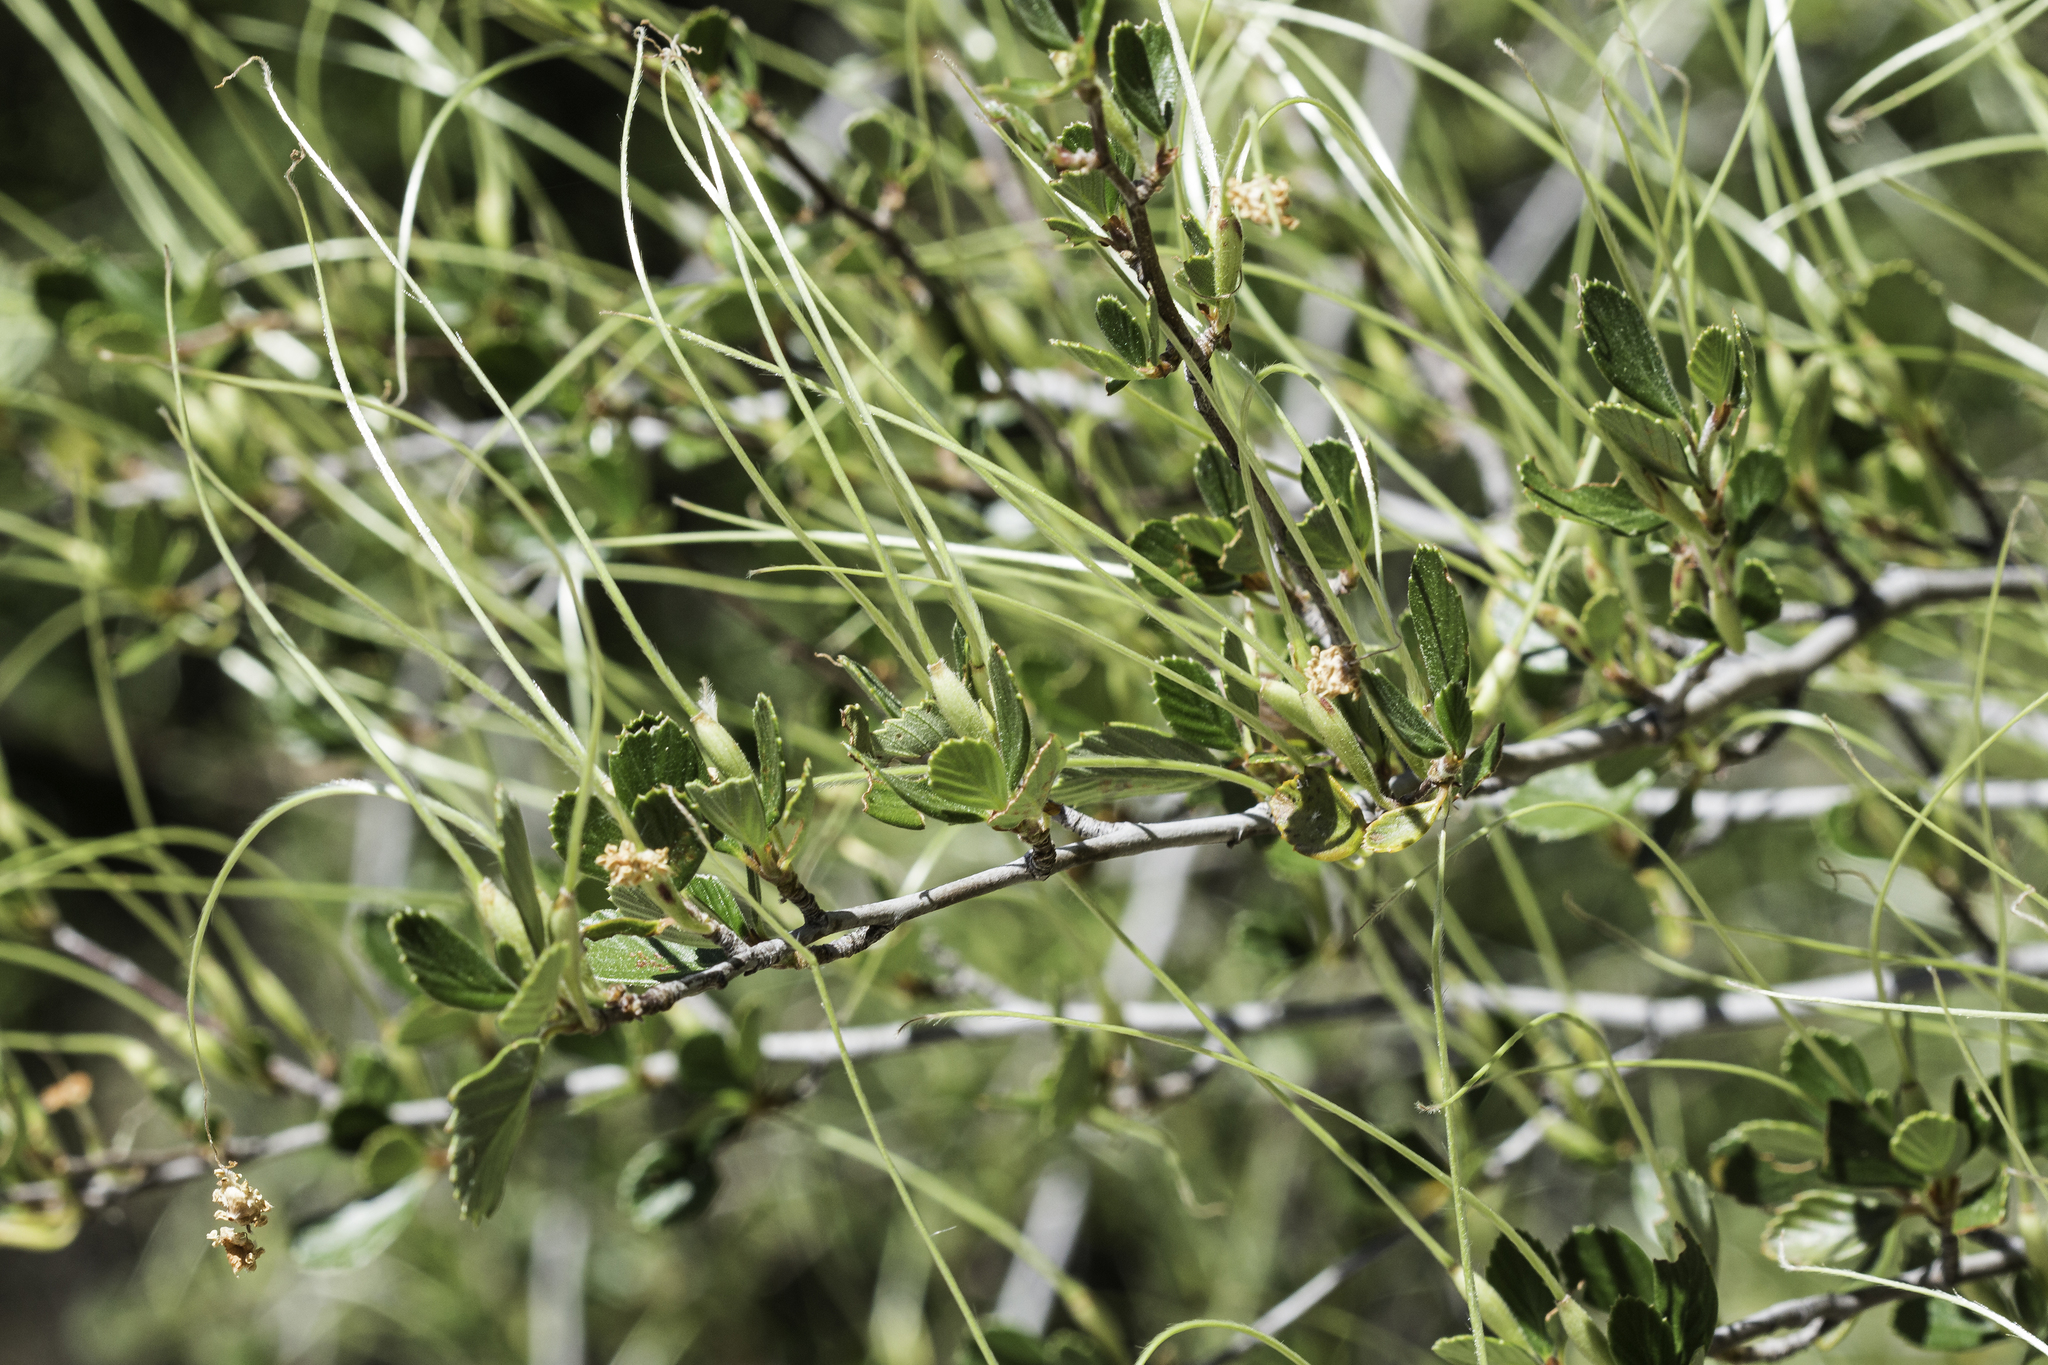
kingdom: Plantae
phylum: Tracheophyta
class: Magnoliopsida
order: Rosales
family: Rosaceae
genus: Cercocarpus
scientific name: Cercocarpus betuloides
